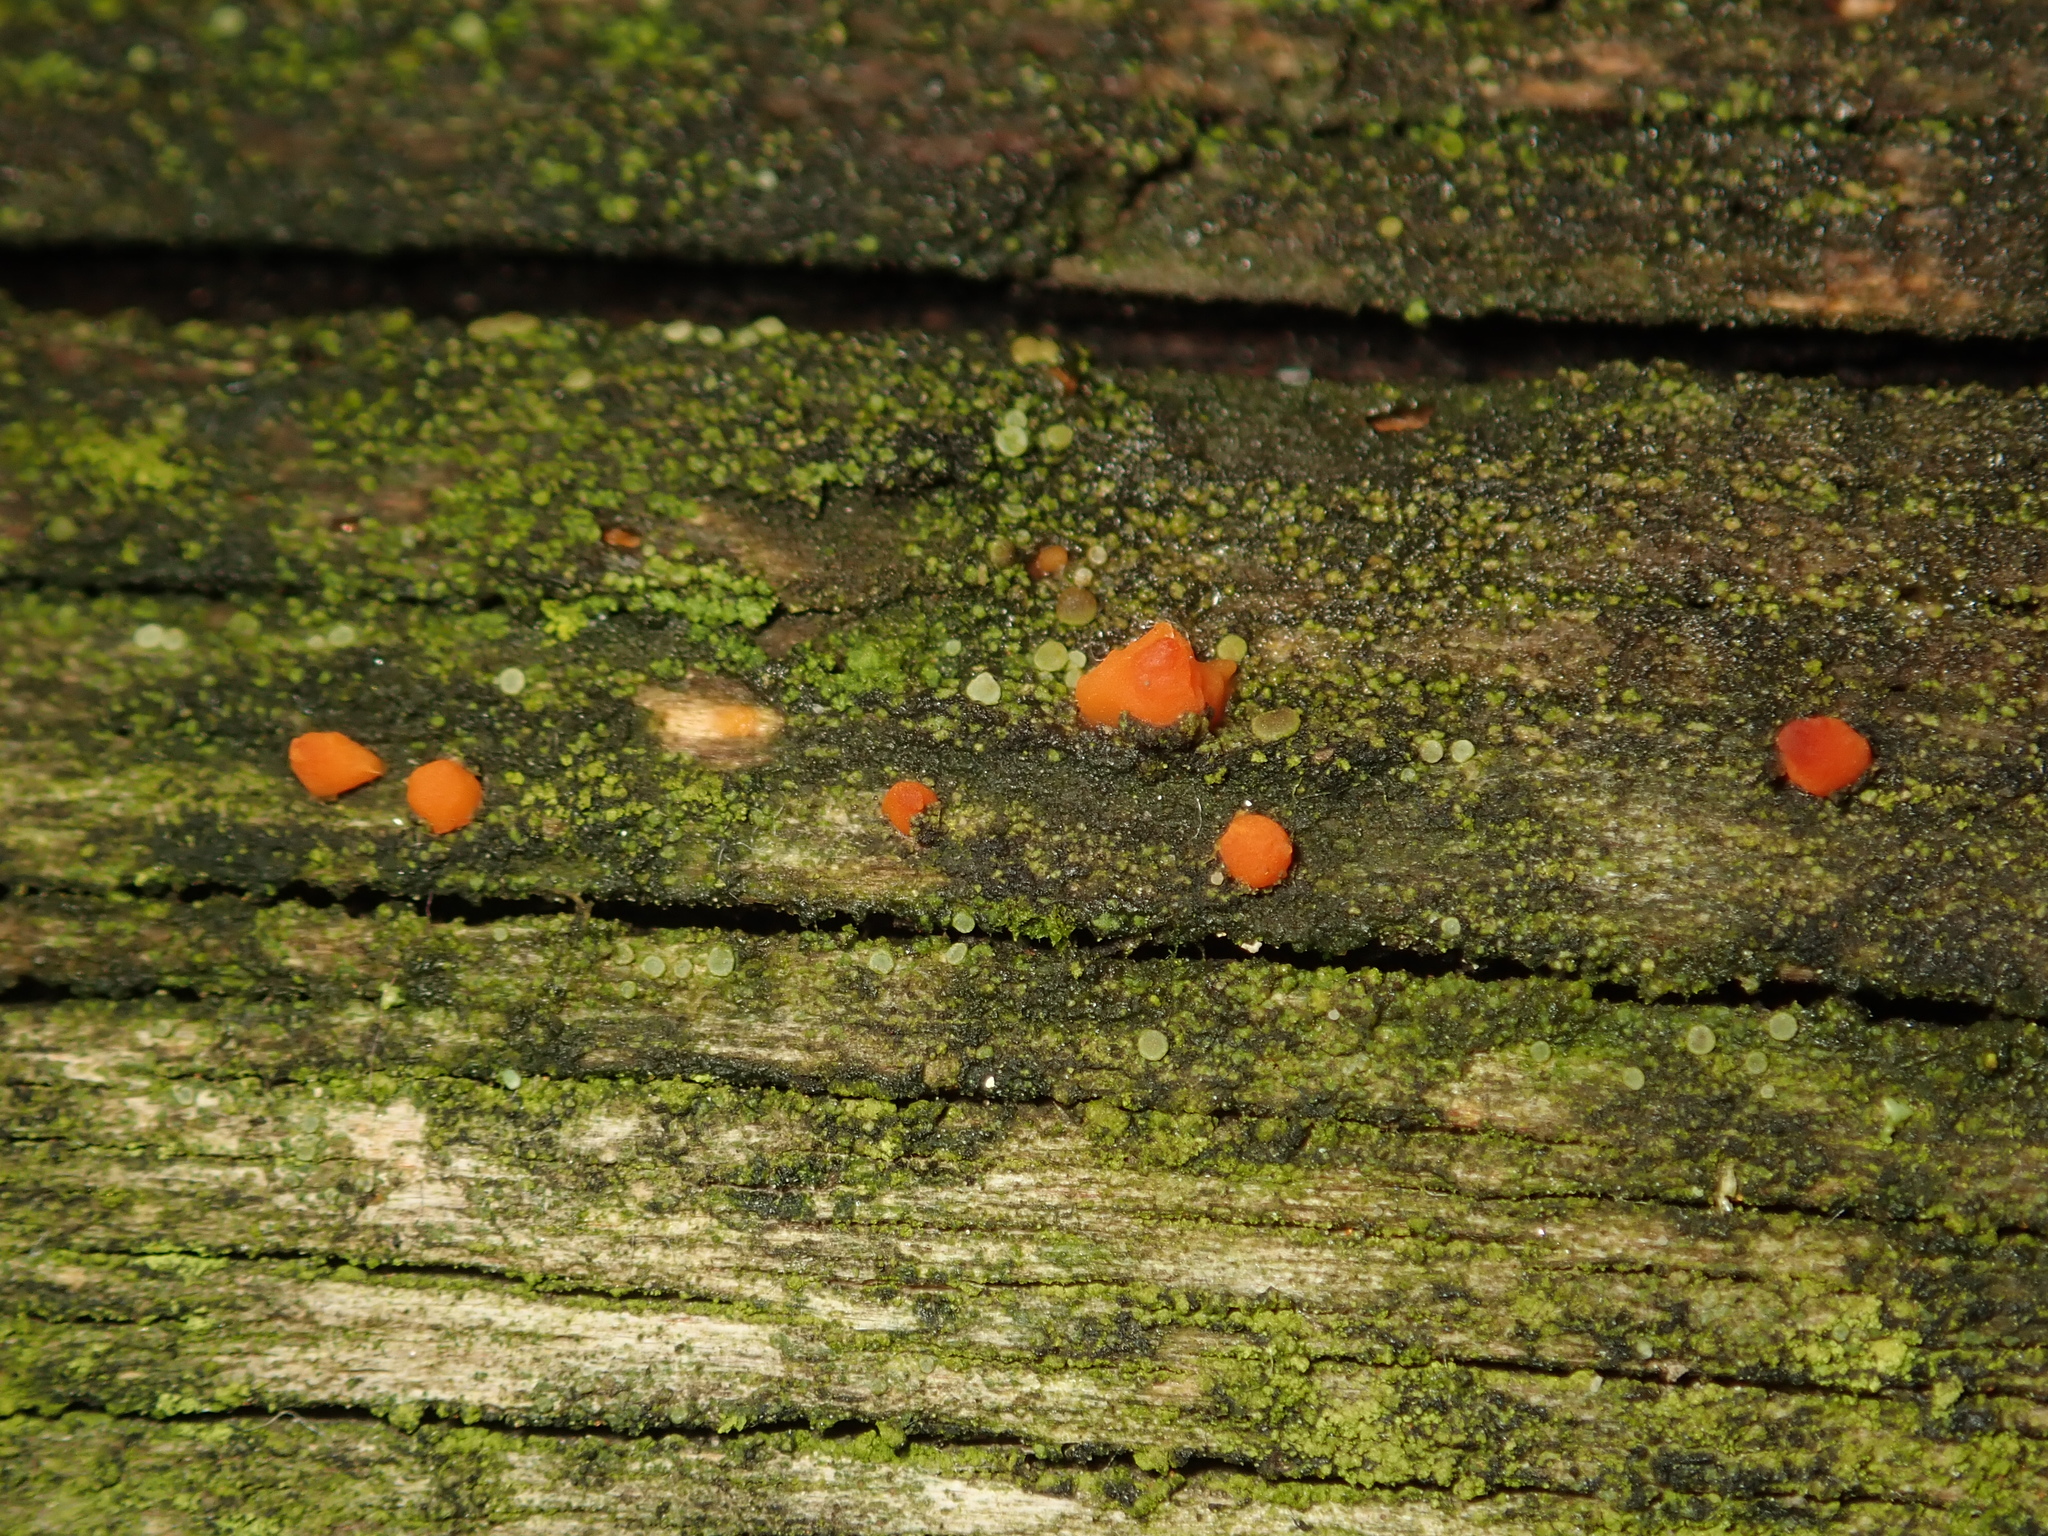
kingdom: Fungi
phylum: Basidiomycota
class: Dacrymycetes
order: Dacrymycetales
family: Dacrymycetaceae
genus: Dacrymyces
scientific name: Dacrymyces stillatus
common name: Common jelly spot
